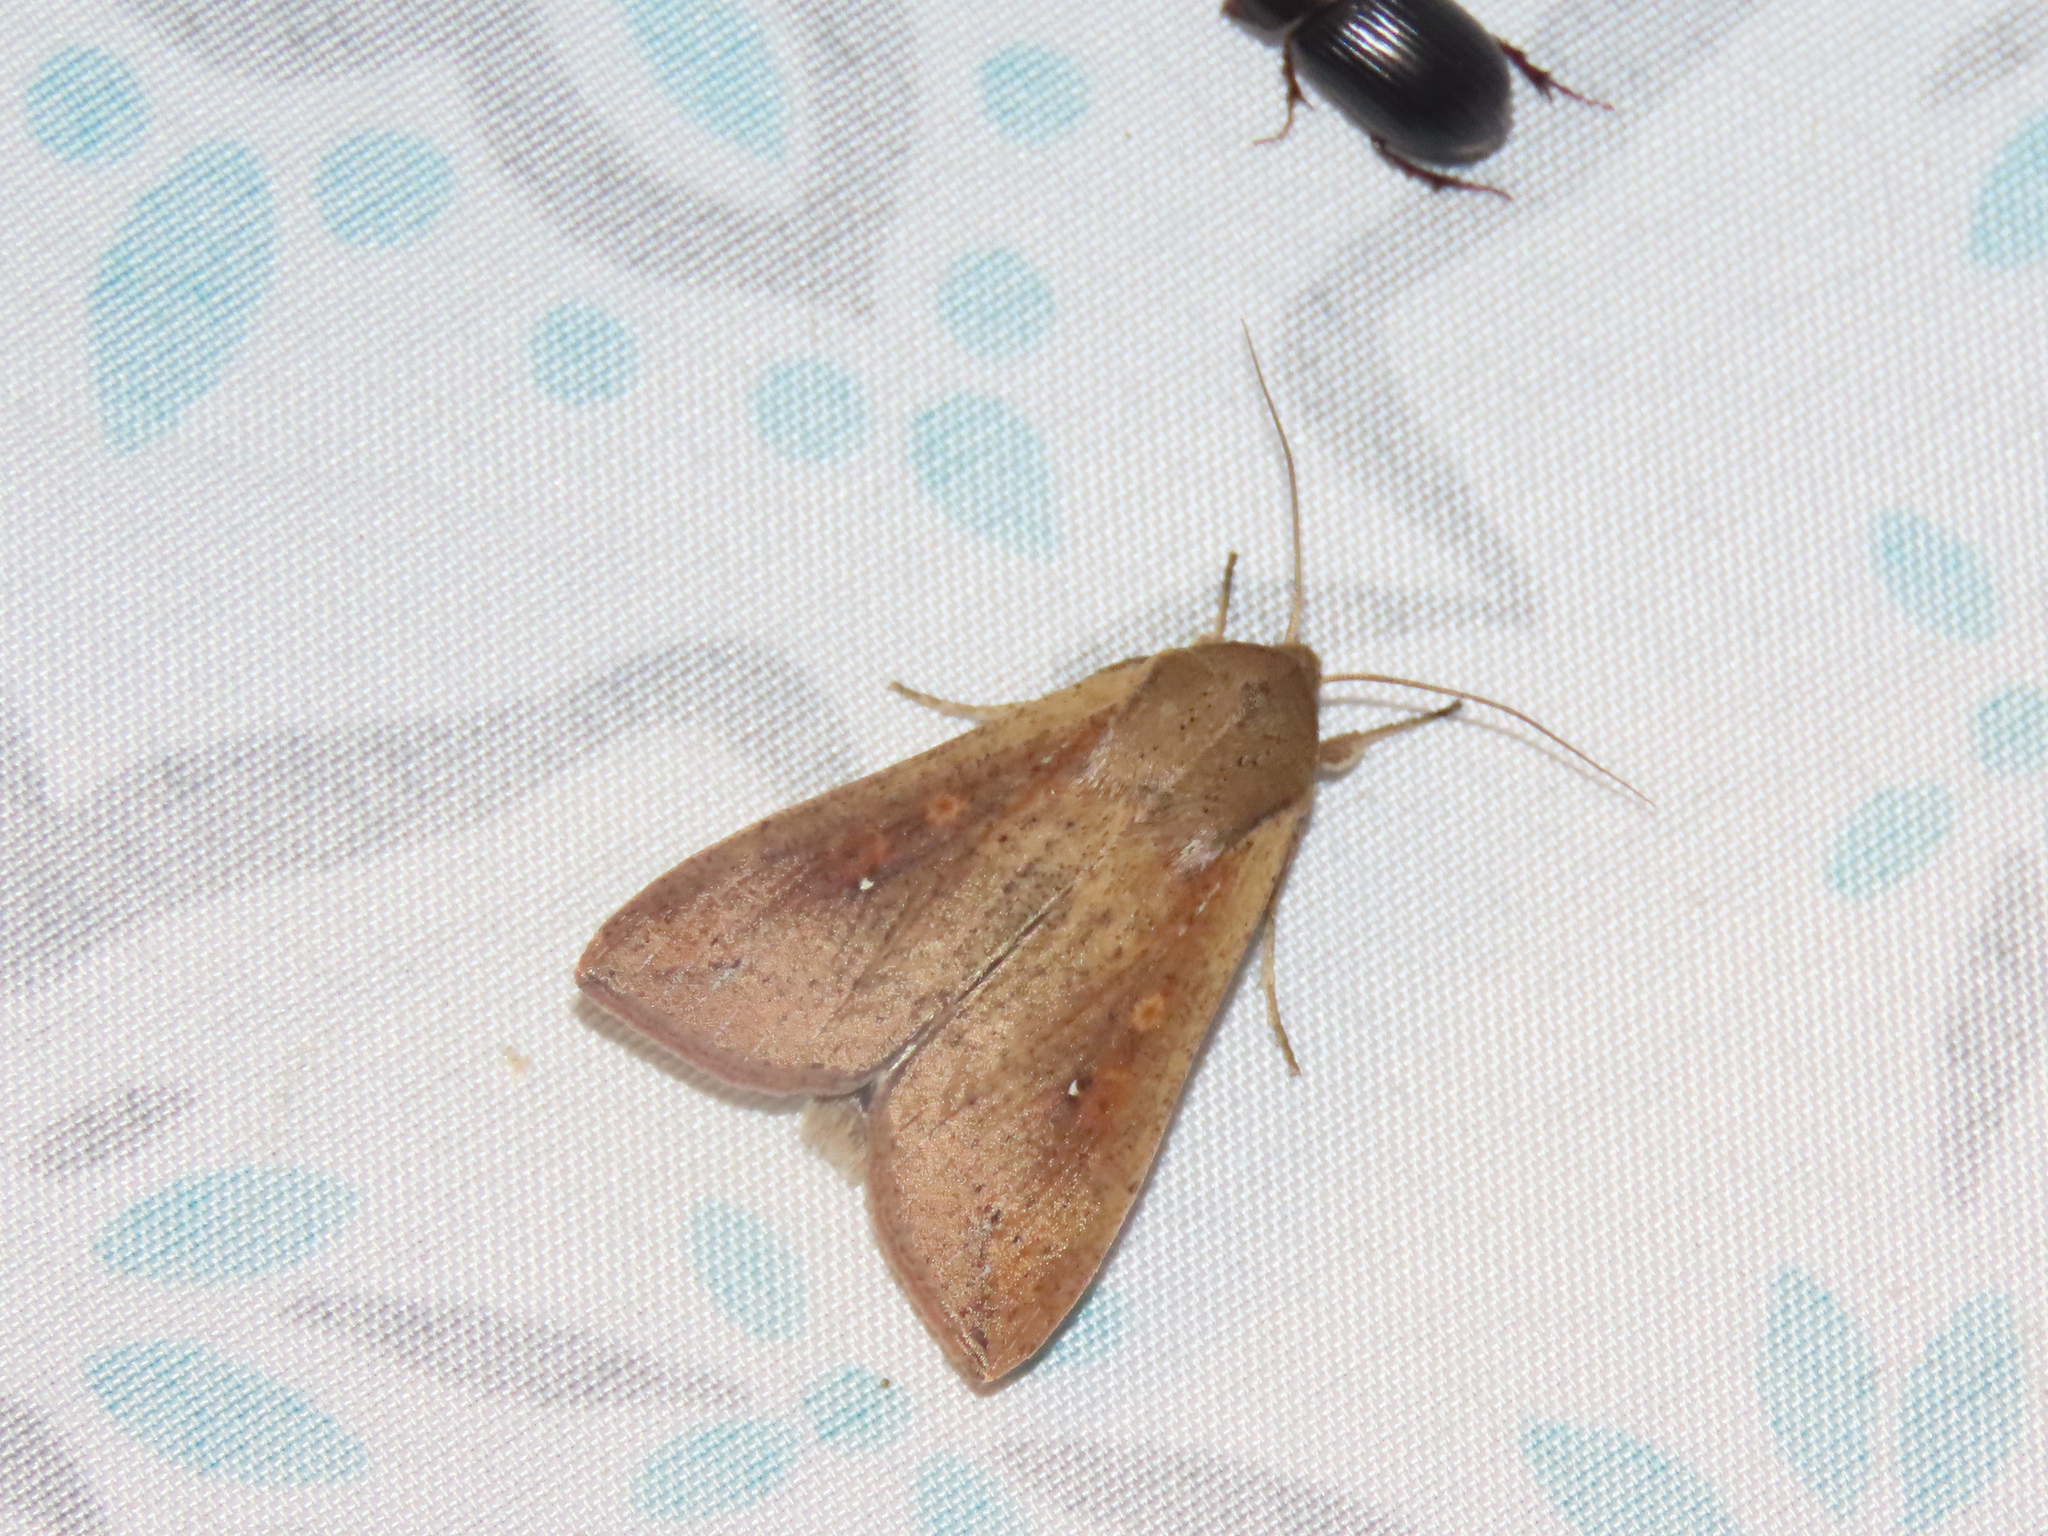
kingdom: Animalia
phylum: Arthropoda
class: Insecta
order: Lepidoptera
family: Noctuidae
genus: Mythimna
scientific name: Mythimna unipuncta
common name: White-speck
